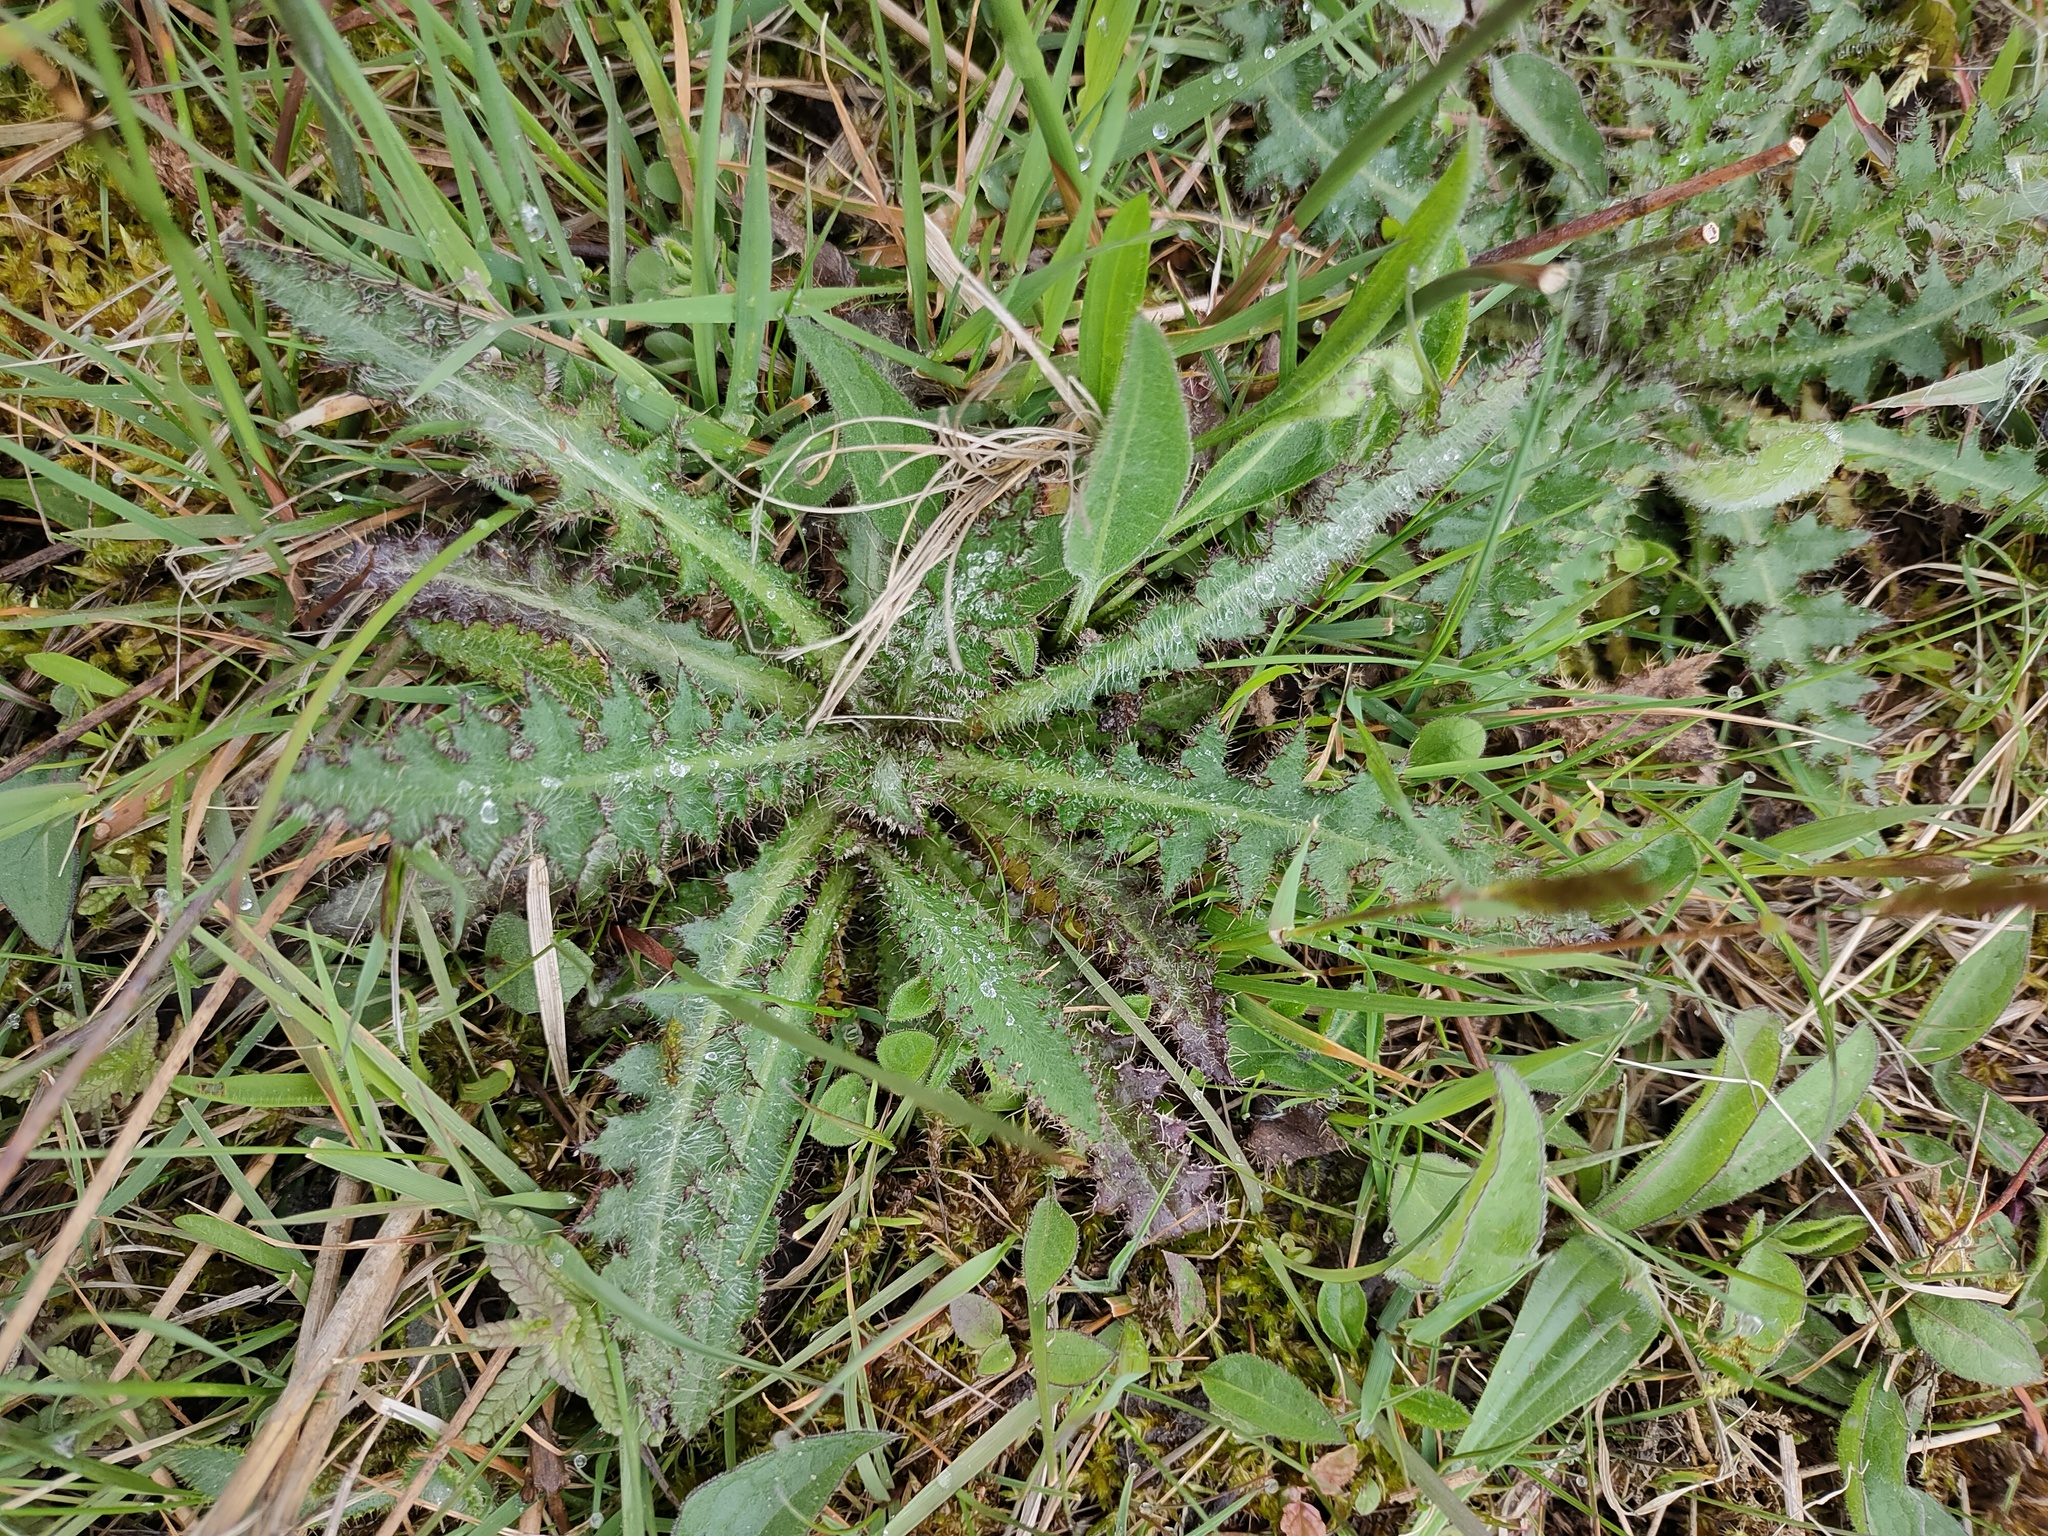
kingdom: Plantae
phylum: Tracheophyta
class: Magnoliopsida
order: Asterales
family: Asteraceae
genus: Cirsium
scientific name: Cirsium palustre
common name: Marsh thistle
